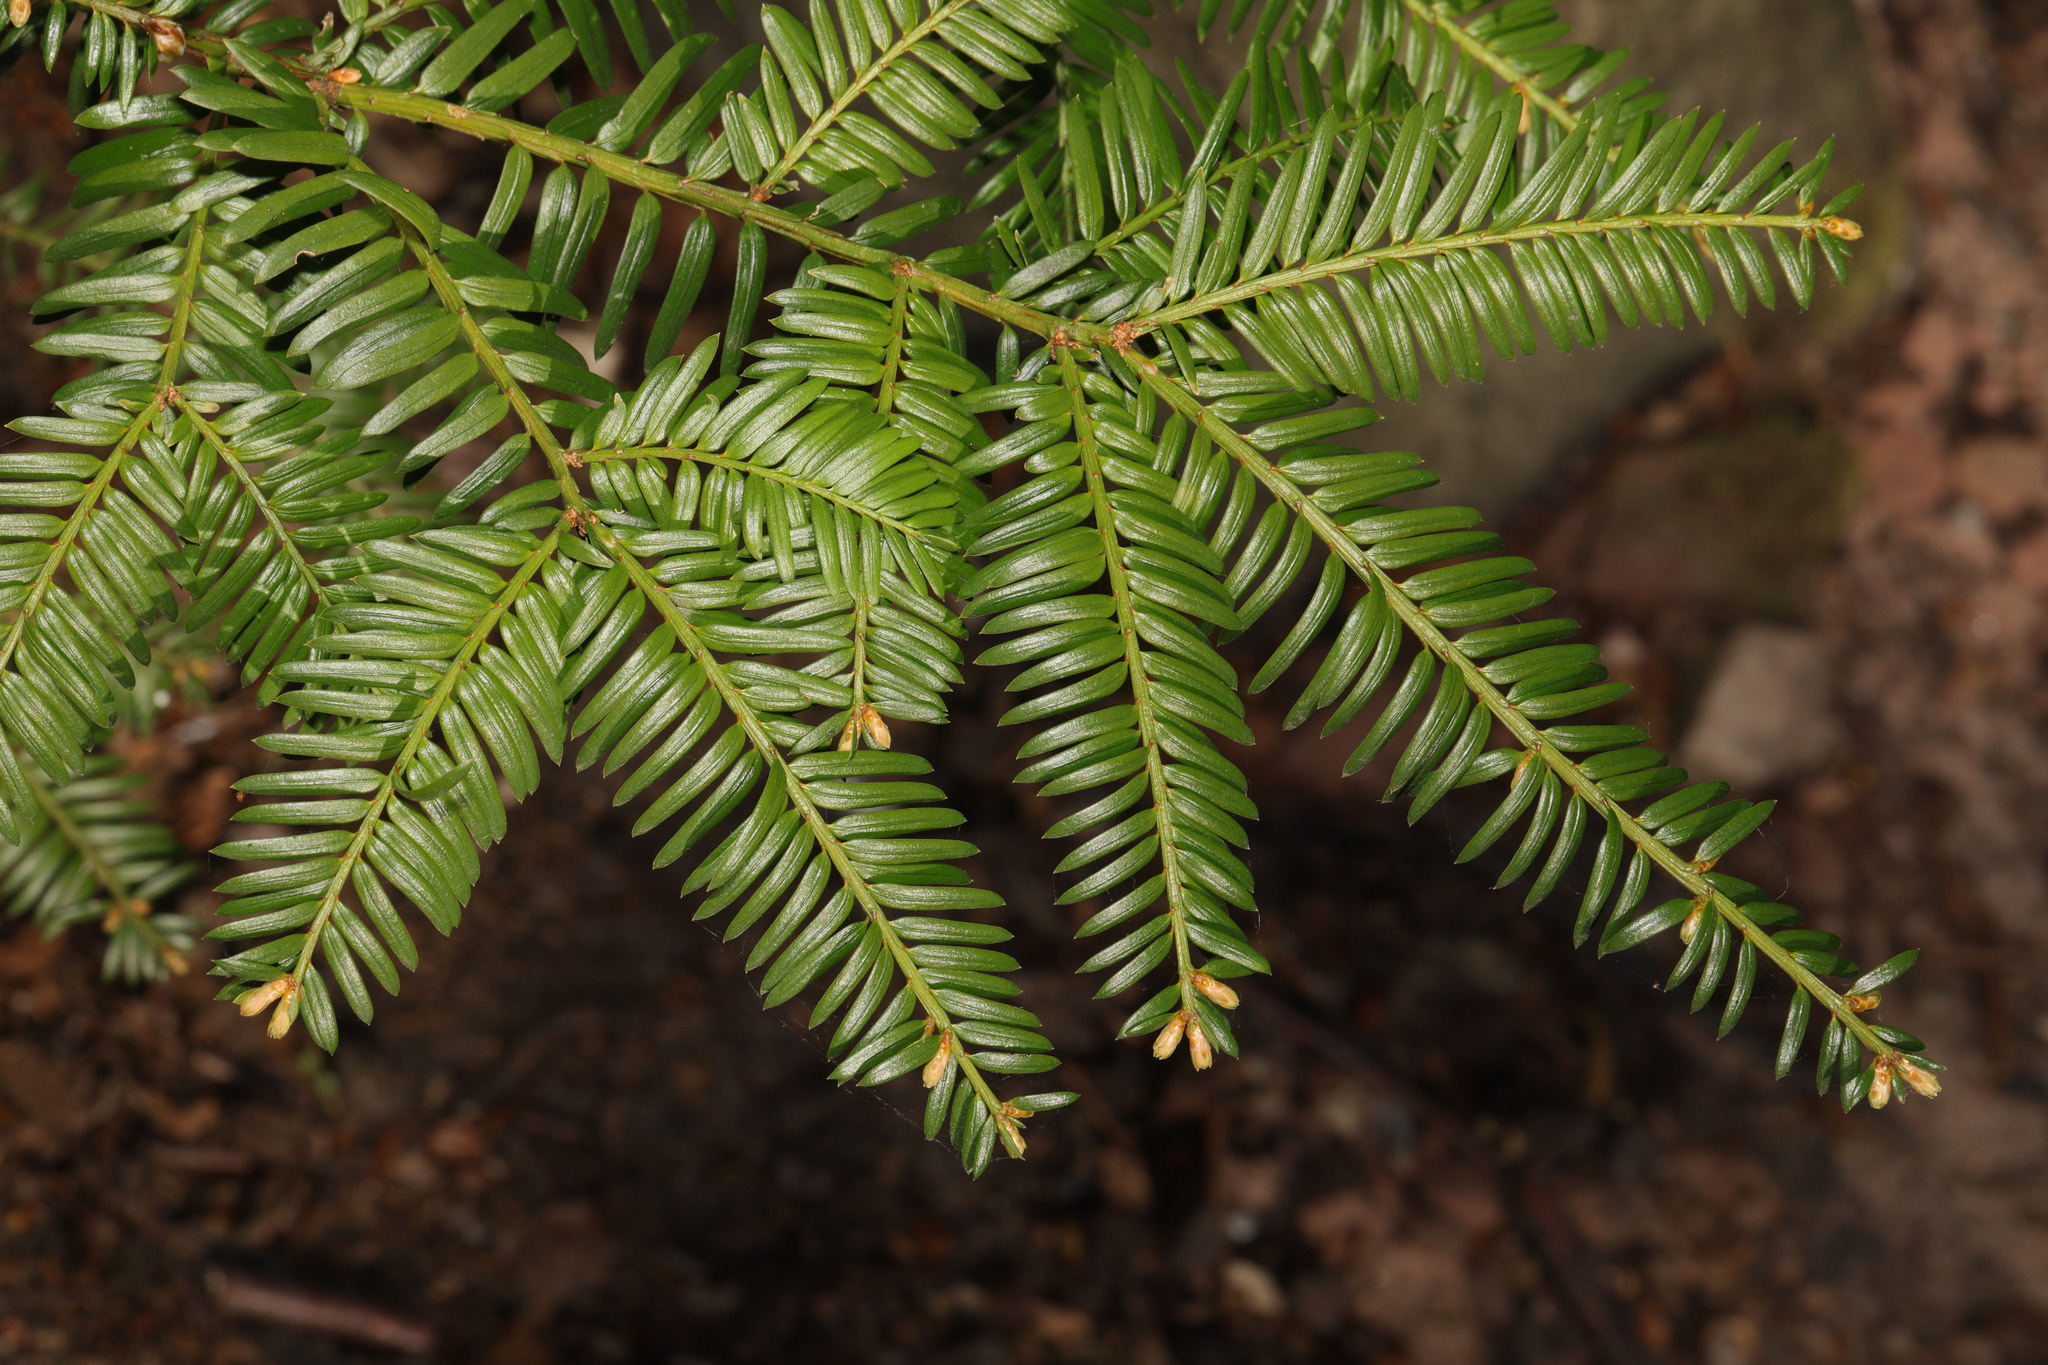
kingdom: Plantae
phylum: Tracheophyta
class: Pinopsida
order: Pinales
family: Taxaceae
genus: Taxus
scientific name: Taxus baccata
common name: Yew
